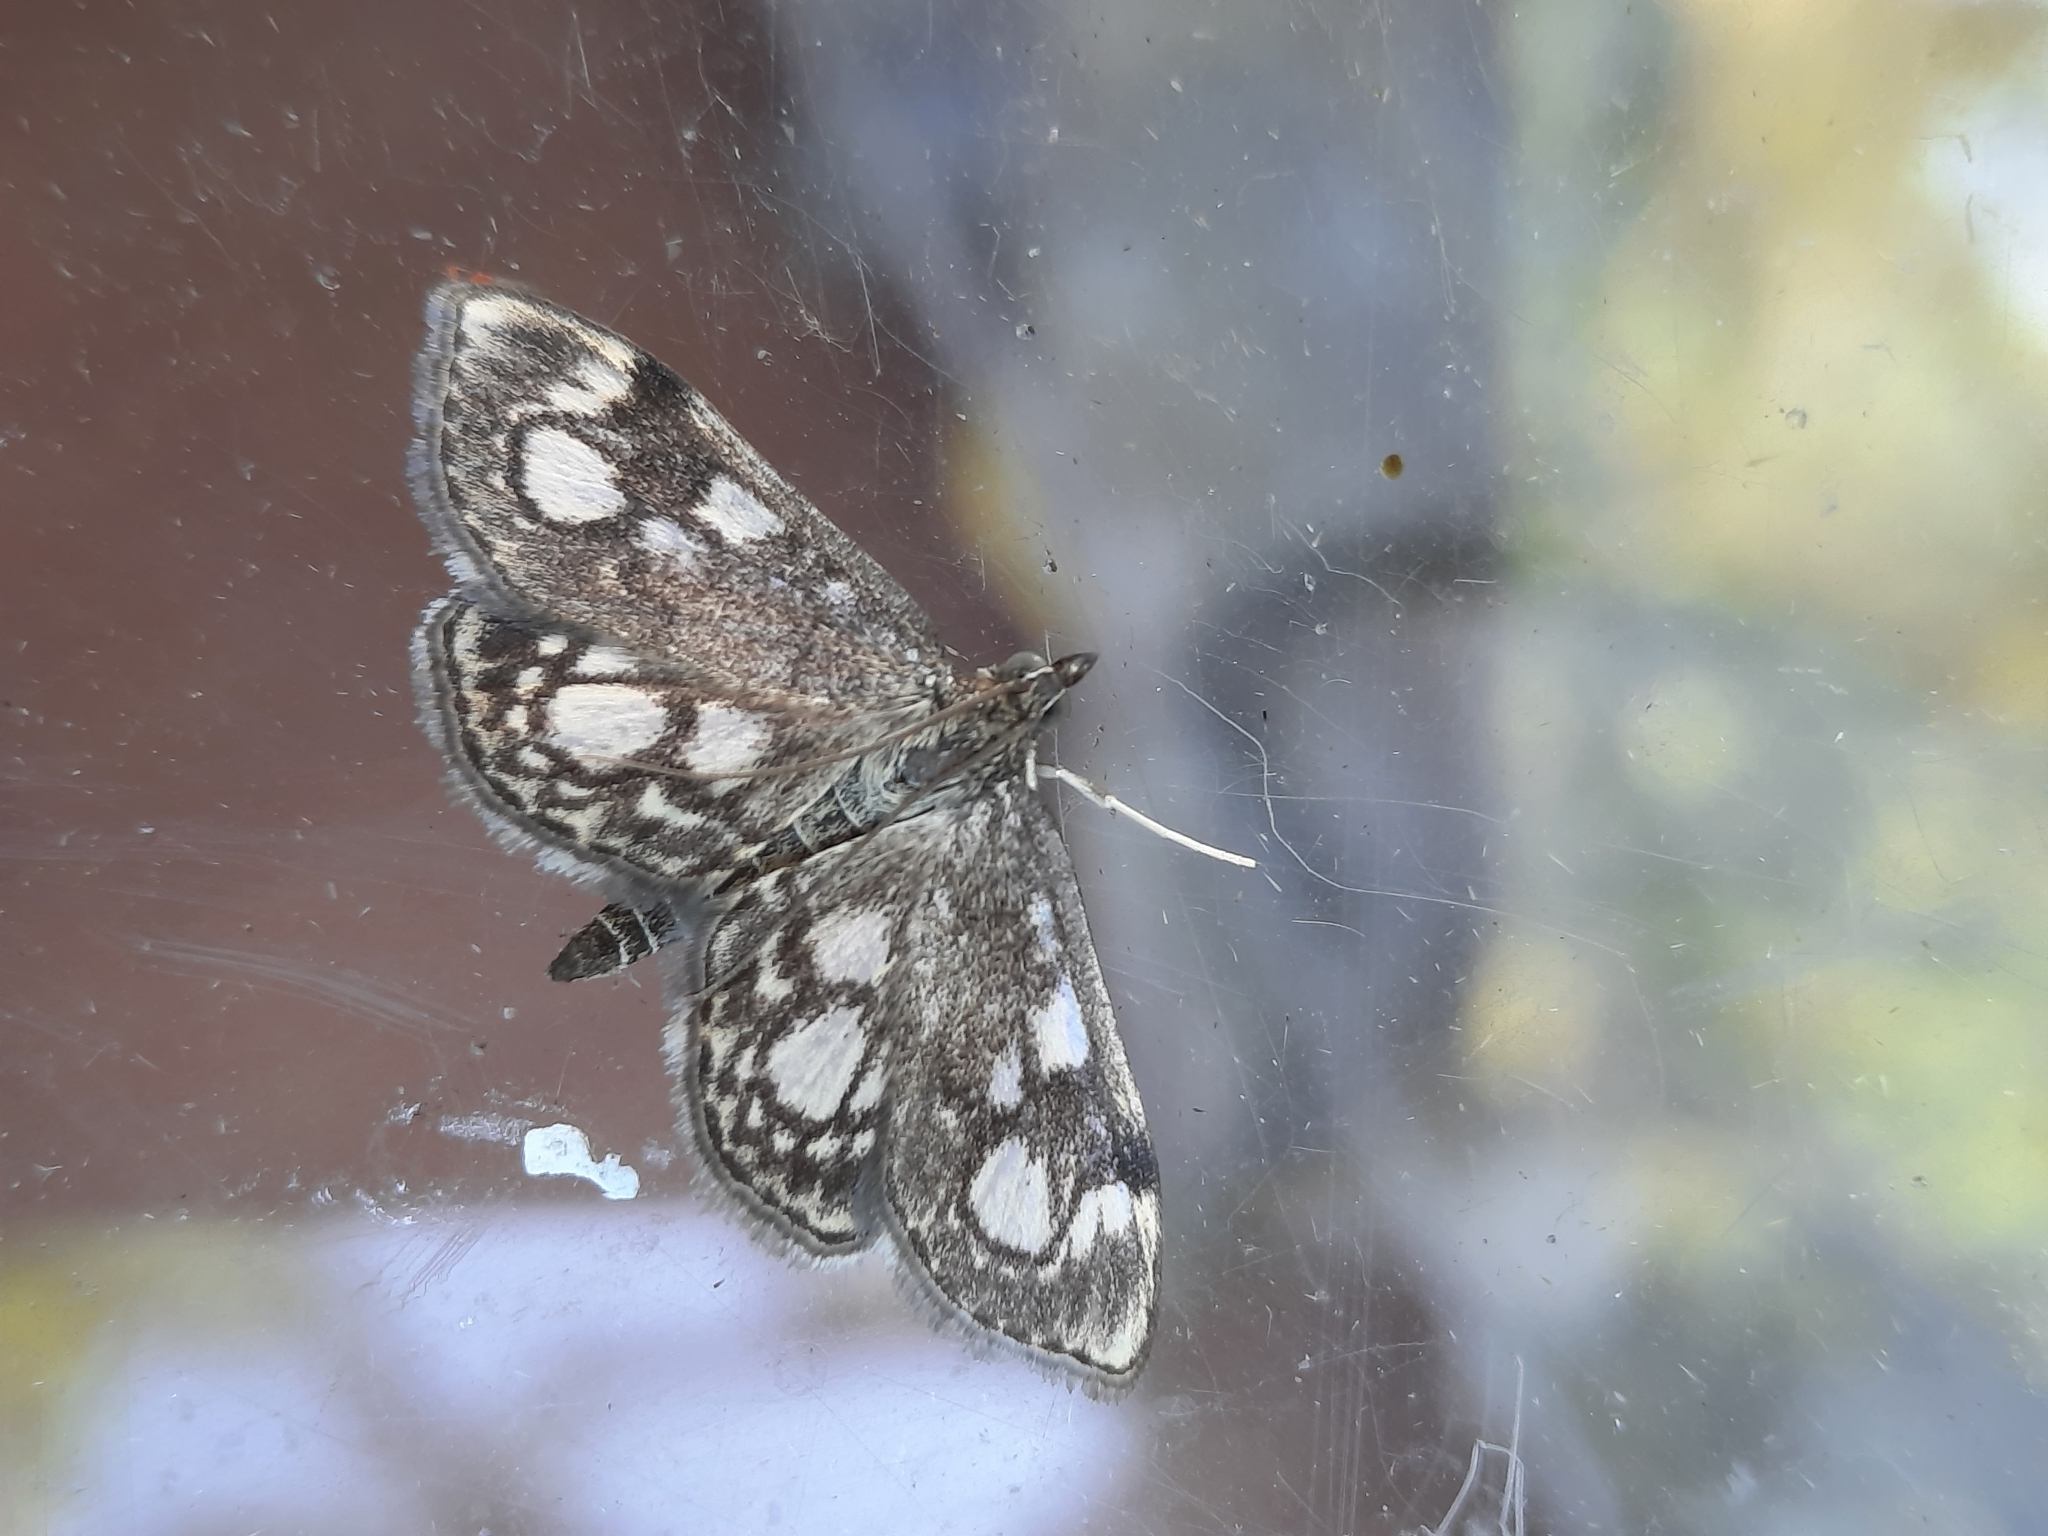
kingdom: Animalia
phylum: Arthropoda
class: Insecta
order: Lepidoptera
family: Crambidae
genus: Anania
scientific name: Anania coronata
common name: Elder pearl
